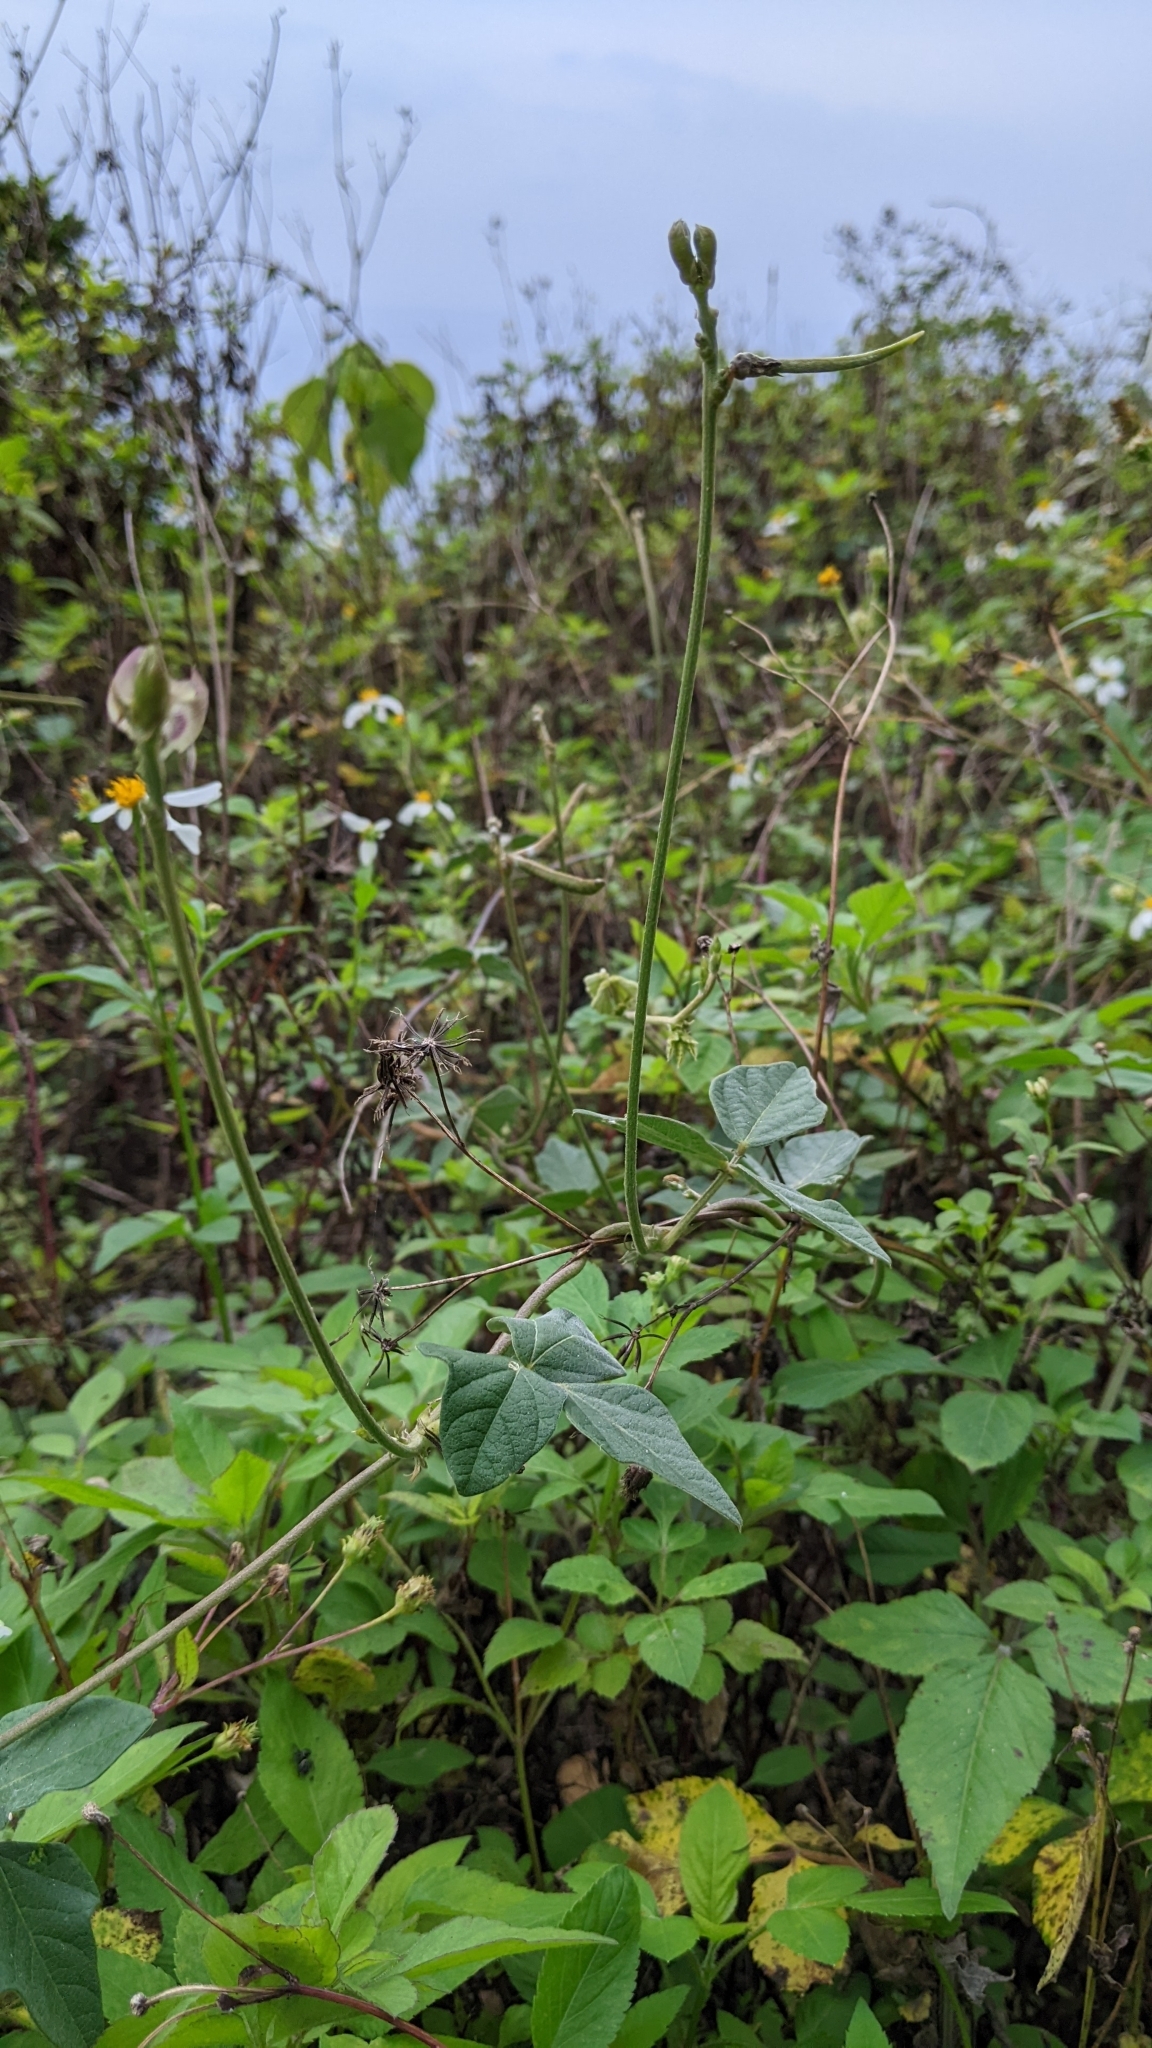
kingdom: Plantae
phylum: Tracheophyta
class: Magnoliopsida
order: Fabales
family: Fabaceae
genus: Macroptilium
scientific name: Macroptilium atropurpureum
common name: Purple bushbean
